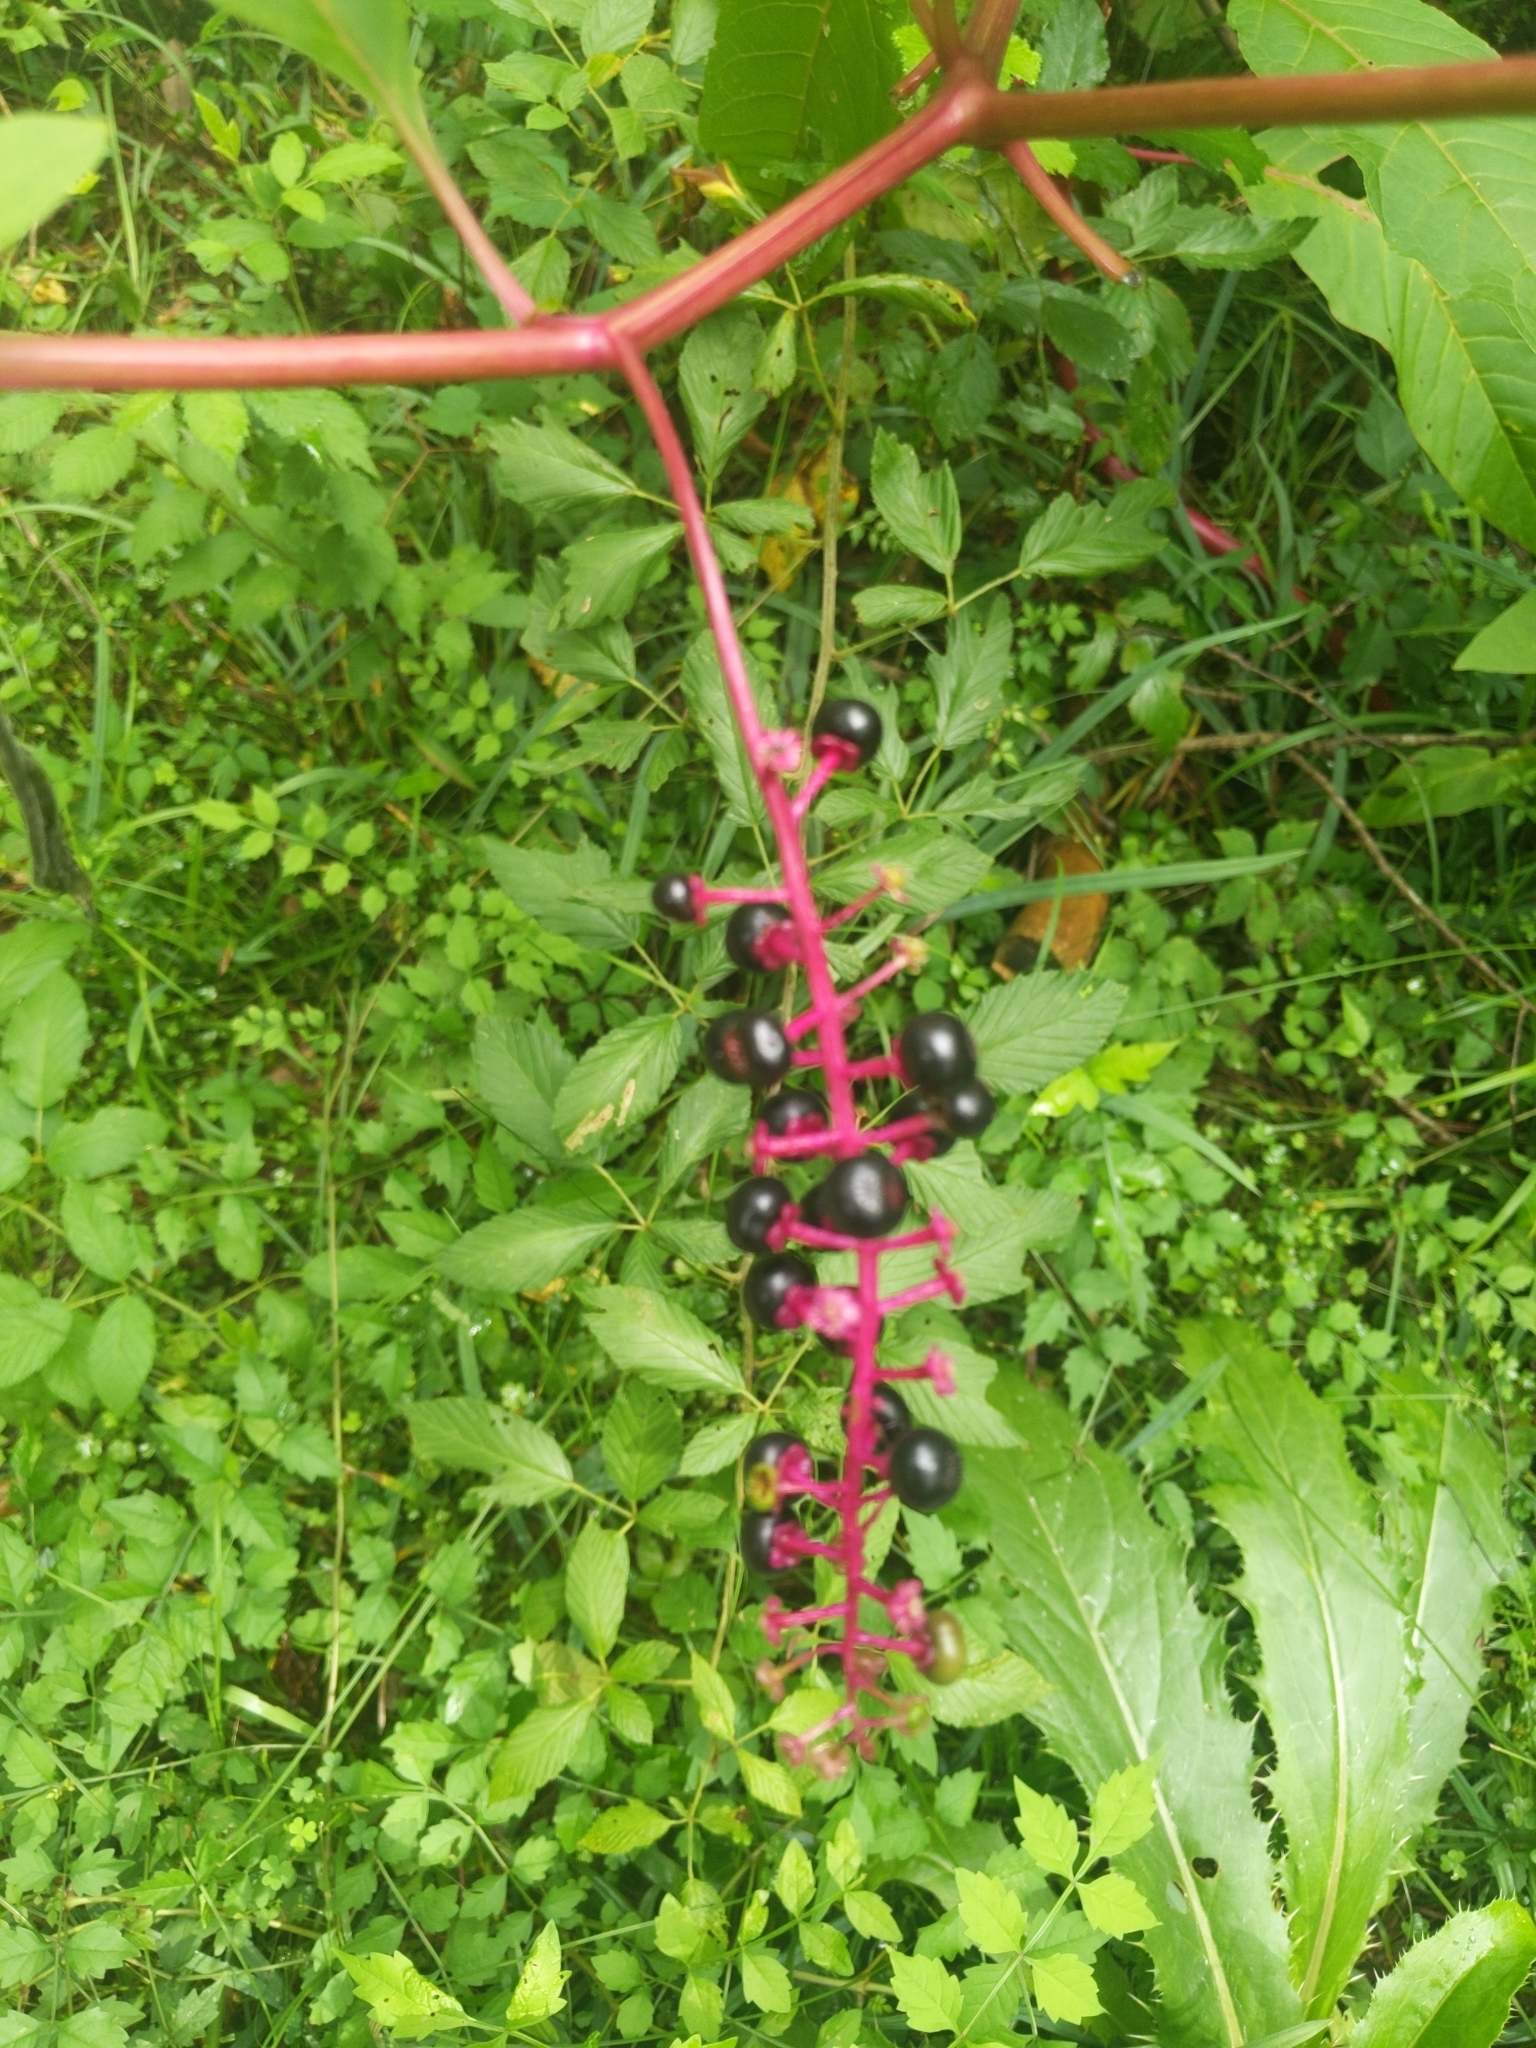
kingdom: Plantae
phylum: Tracheophyta
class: Magnoliopsida
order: Caryophyllales
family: Phytolaccaceae
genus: Phytolacca
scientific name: Phytolacca americana
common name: American pokeweed
